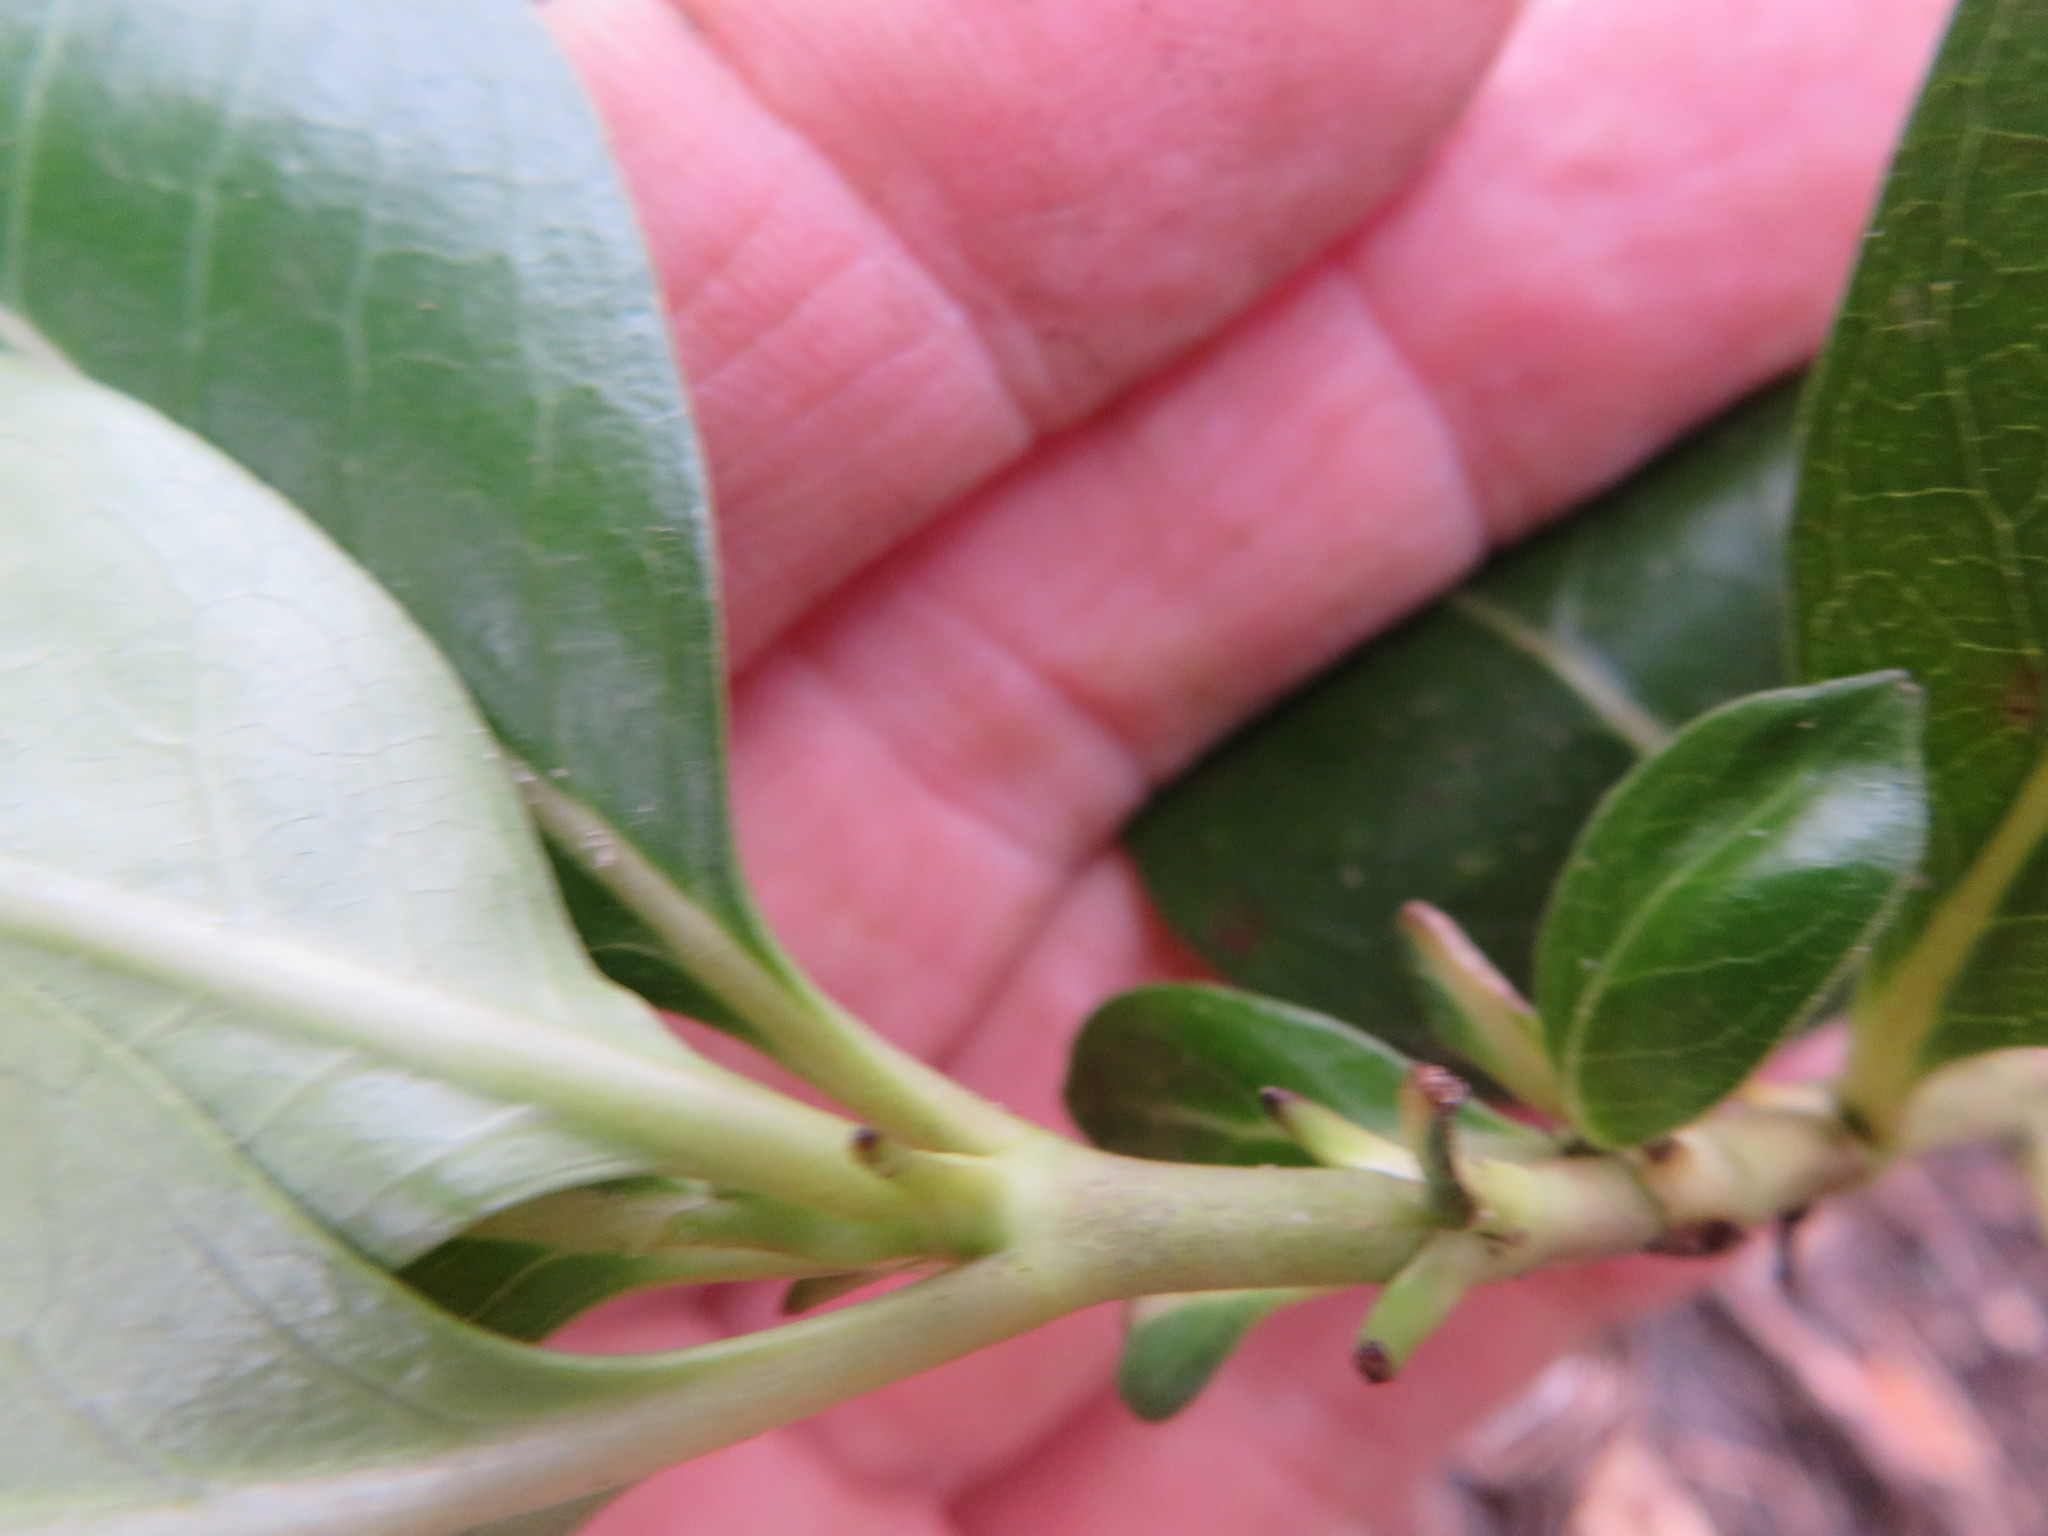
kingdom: Plantae
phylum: Tracheophyta
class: Magnoliopsida
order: Gentianales
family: Rubiaceae
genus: Coprosma
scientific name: Coprosma robusta
